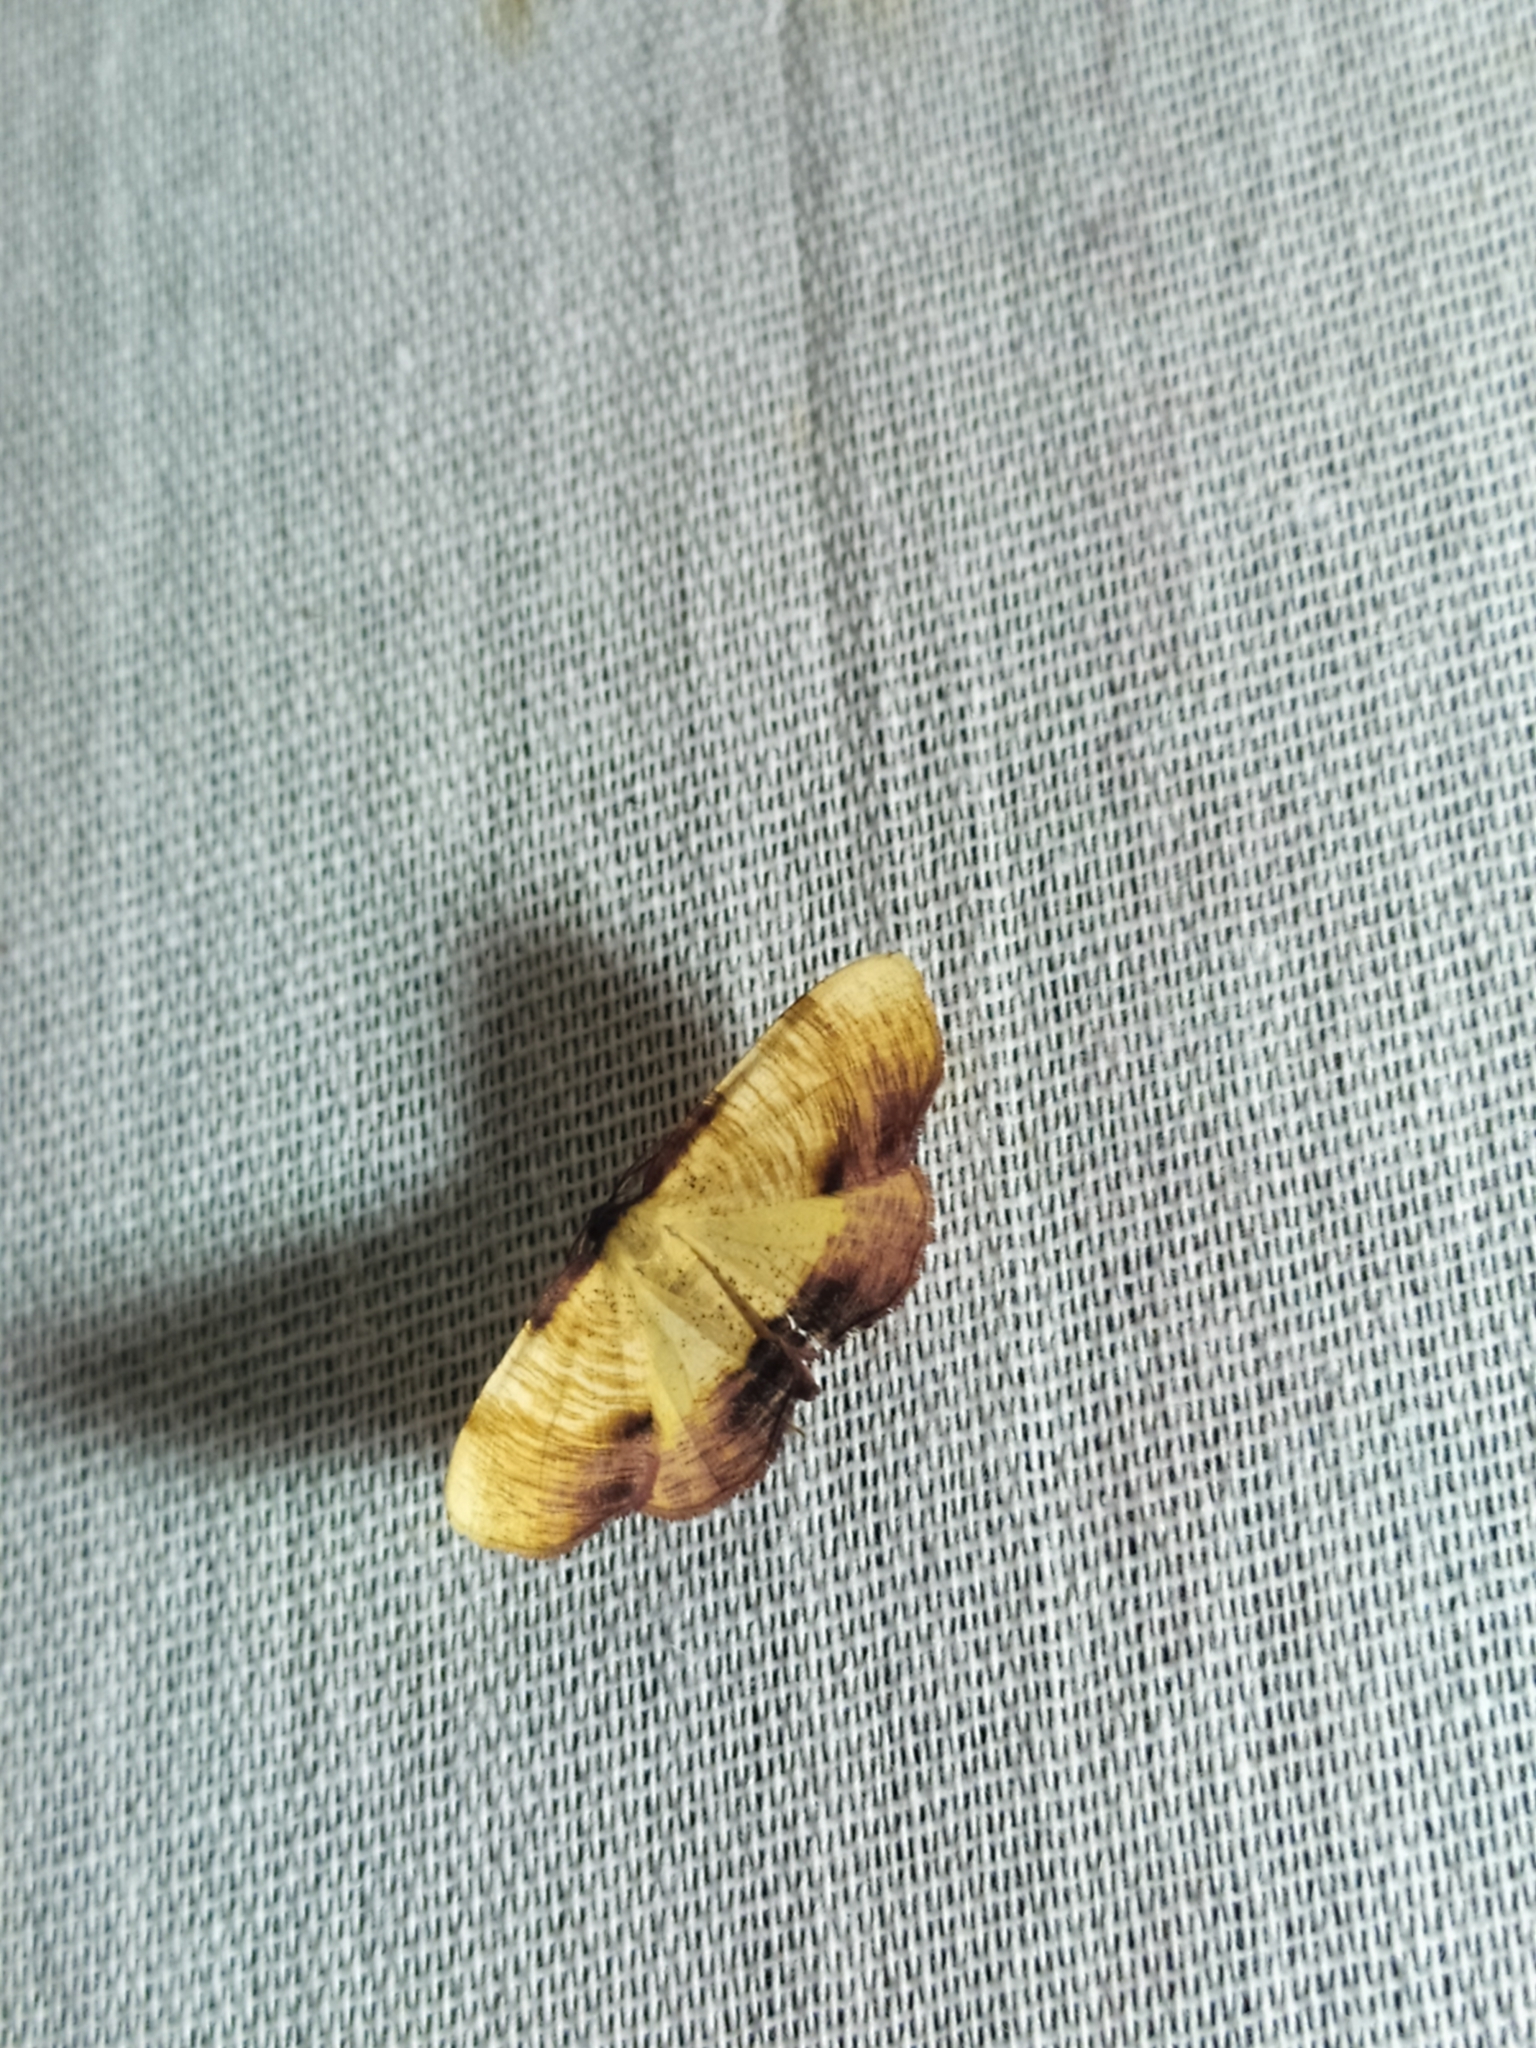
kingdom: Animalia
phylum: Arthropoda
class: Insecta
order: Lepidoptera
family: Geometridae
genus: Plagodis
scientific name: Plagodis dolabraria
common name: Scorched wing
